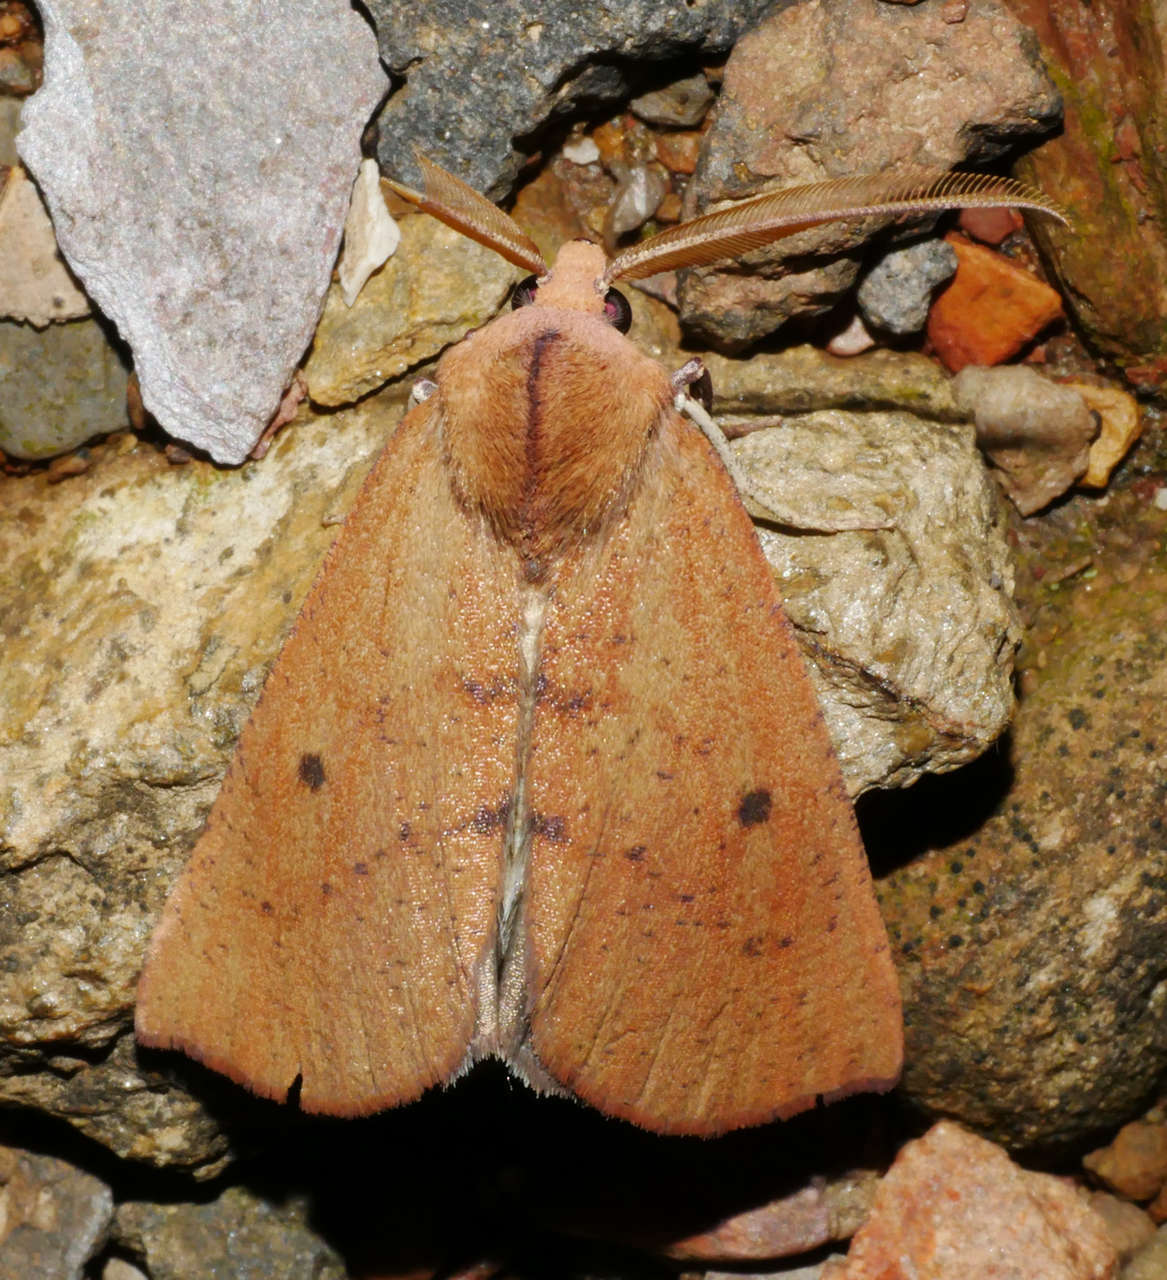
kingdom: Animalia
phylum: Arthropoda
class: Insecta
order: Lepidoptera
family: Geometridae
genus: Fisera
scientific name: Fisera hypoleuca
